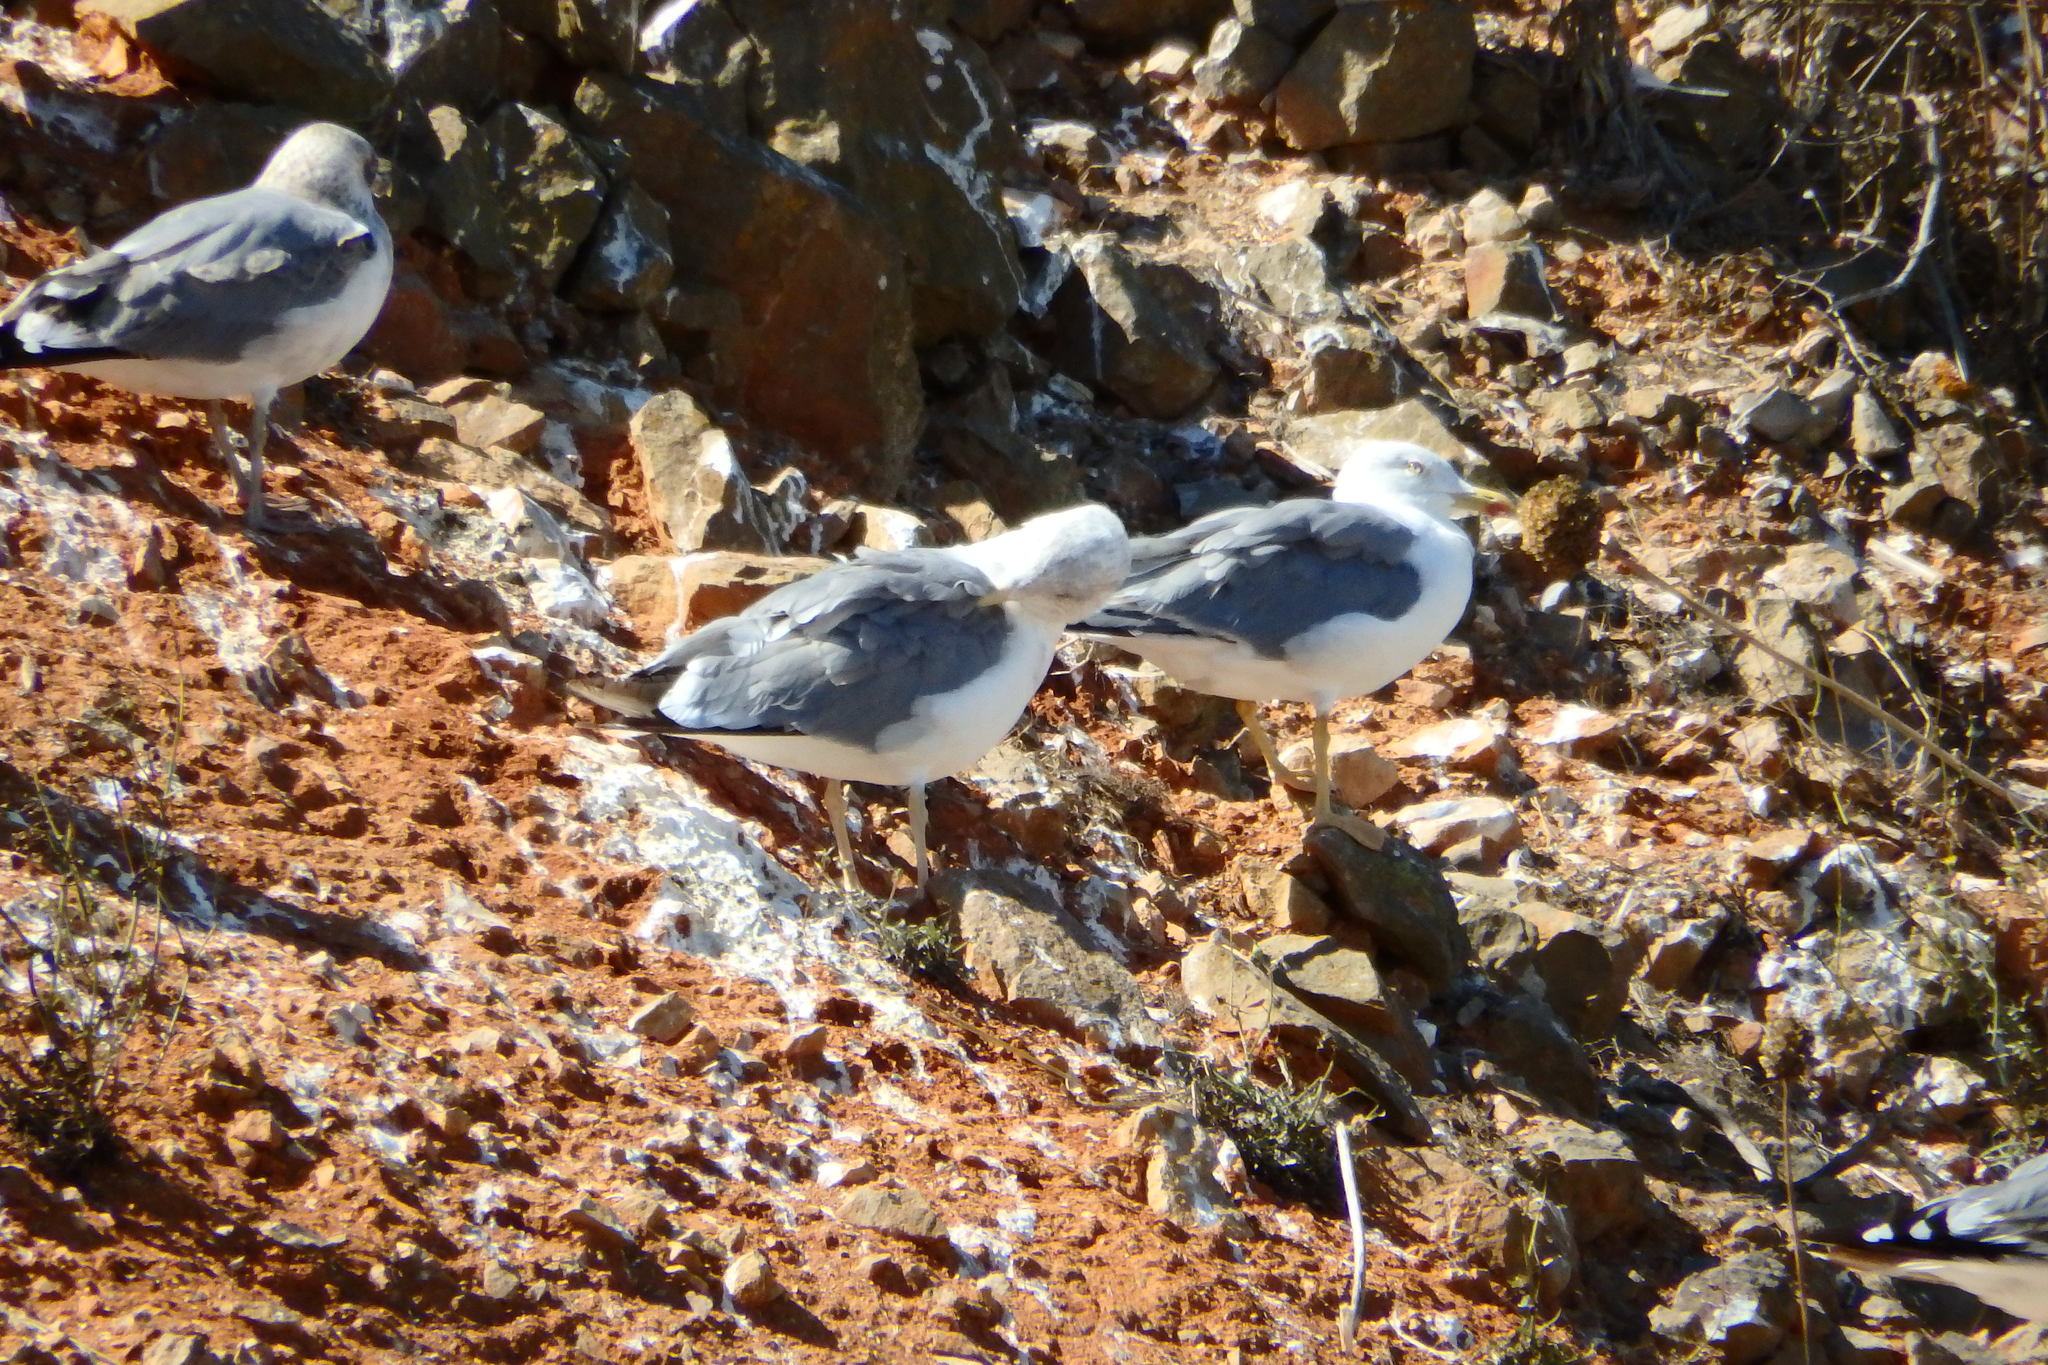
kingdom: Animalia
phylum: Chordata
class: Aves
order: Charadriiformes
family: Laridae
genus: Larus
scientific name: Larus michahellis
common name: Yellow-legged gull
